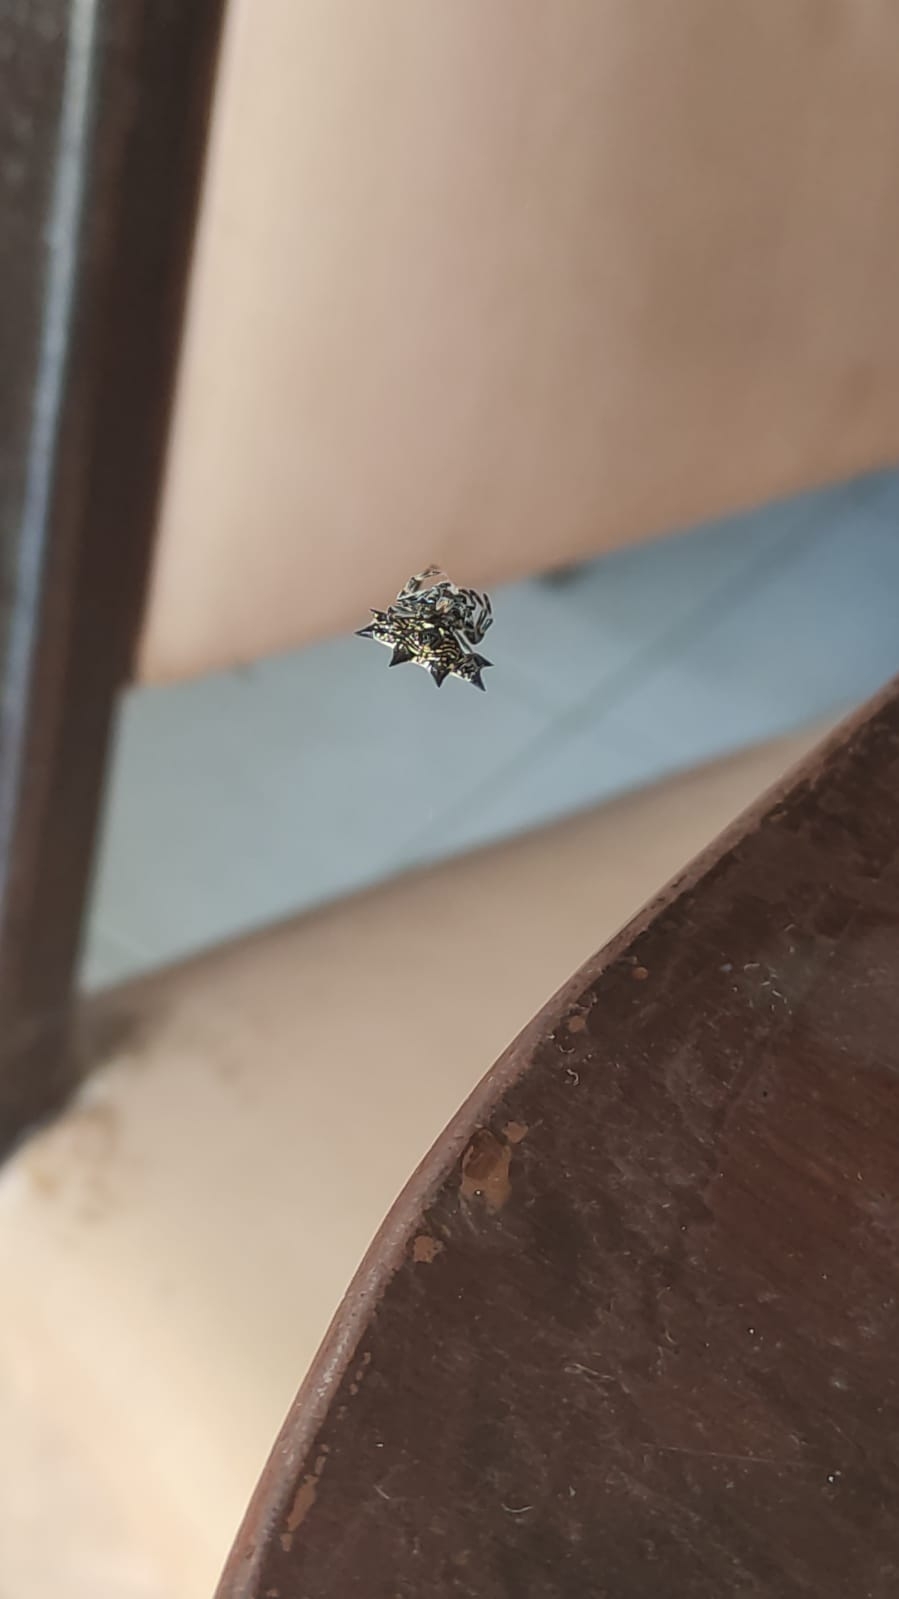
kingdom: Animalia
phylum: Arthropoda
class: Arachnida
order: Araneae
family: Araneidae
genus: Gasteracantha
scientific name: Gasteracantha cancriformis
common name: Orb weavers
